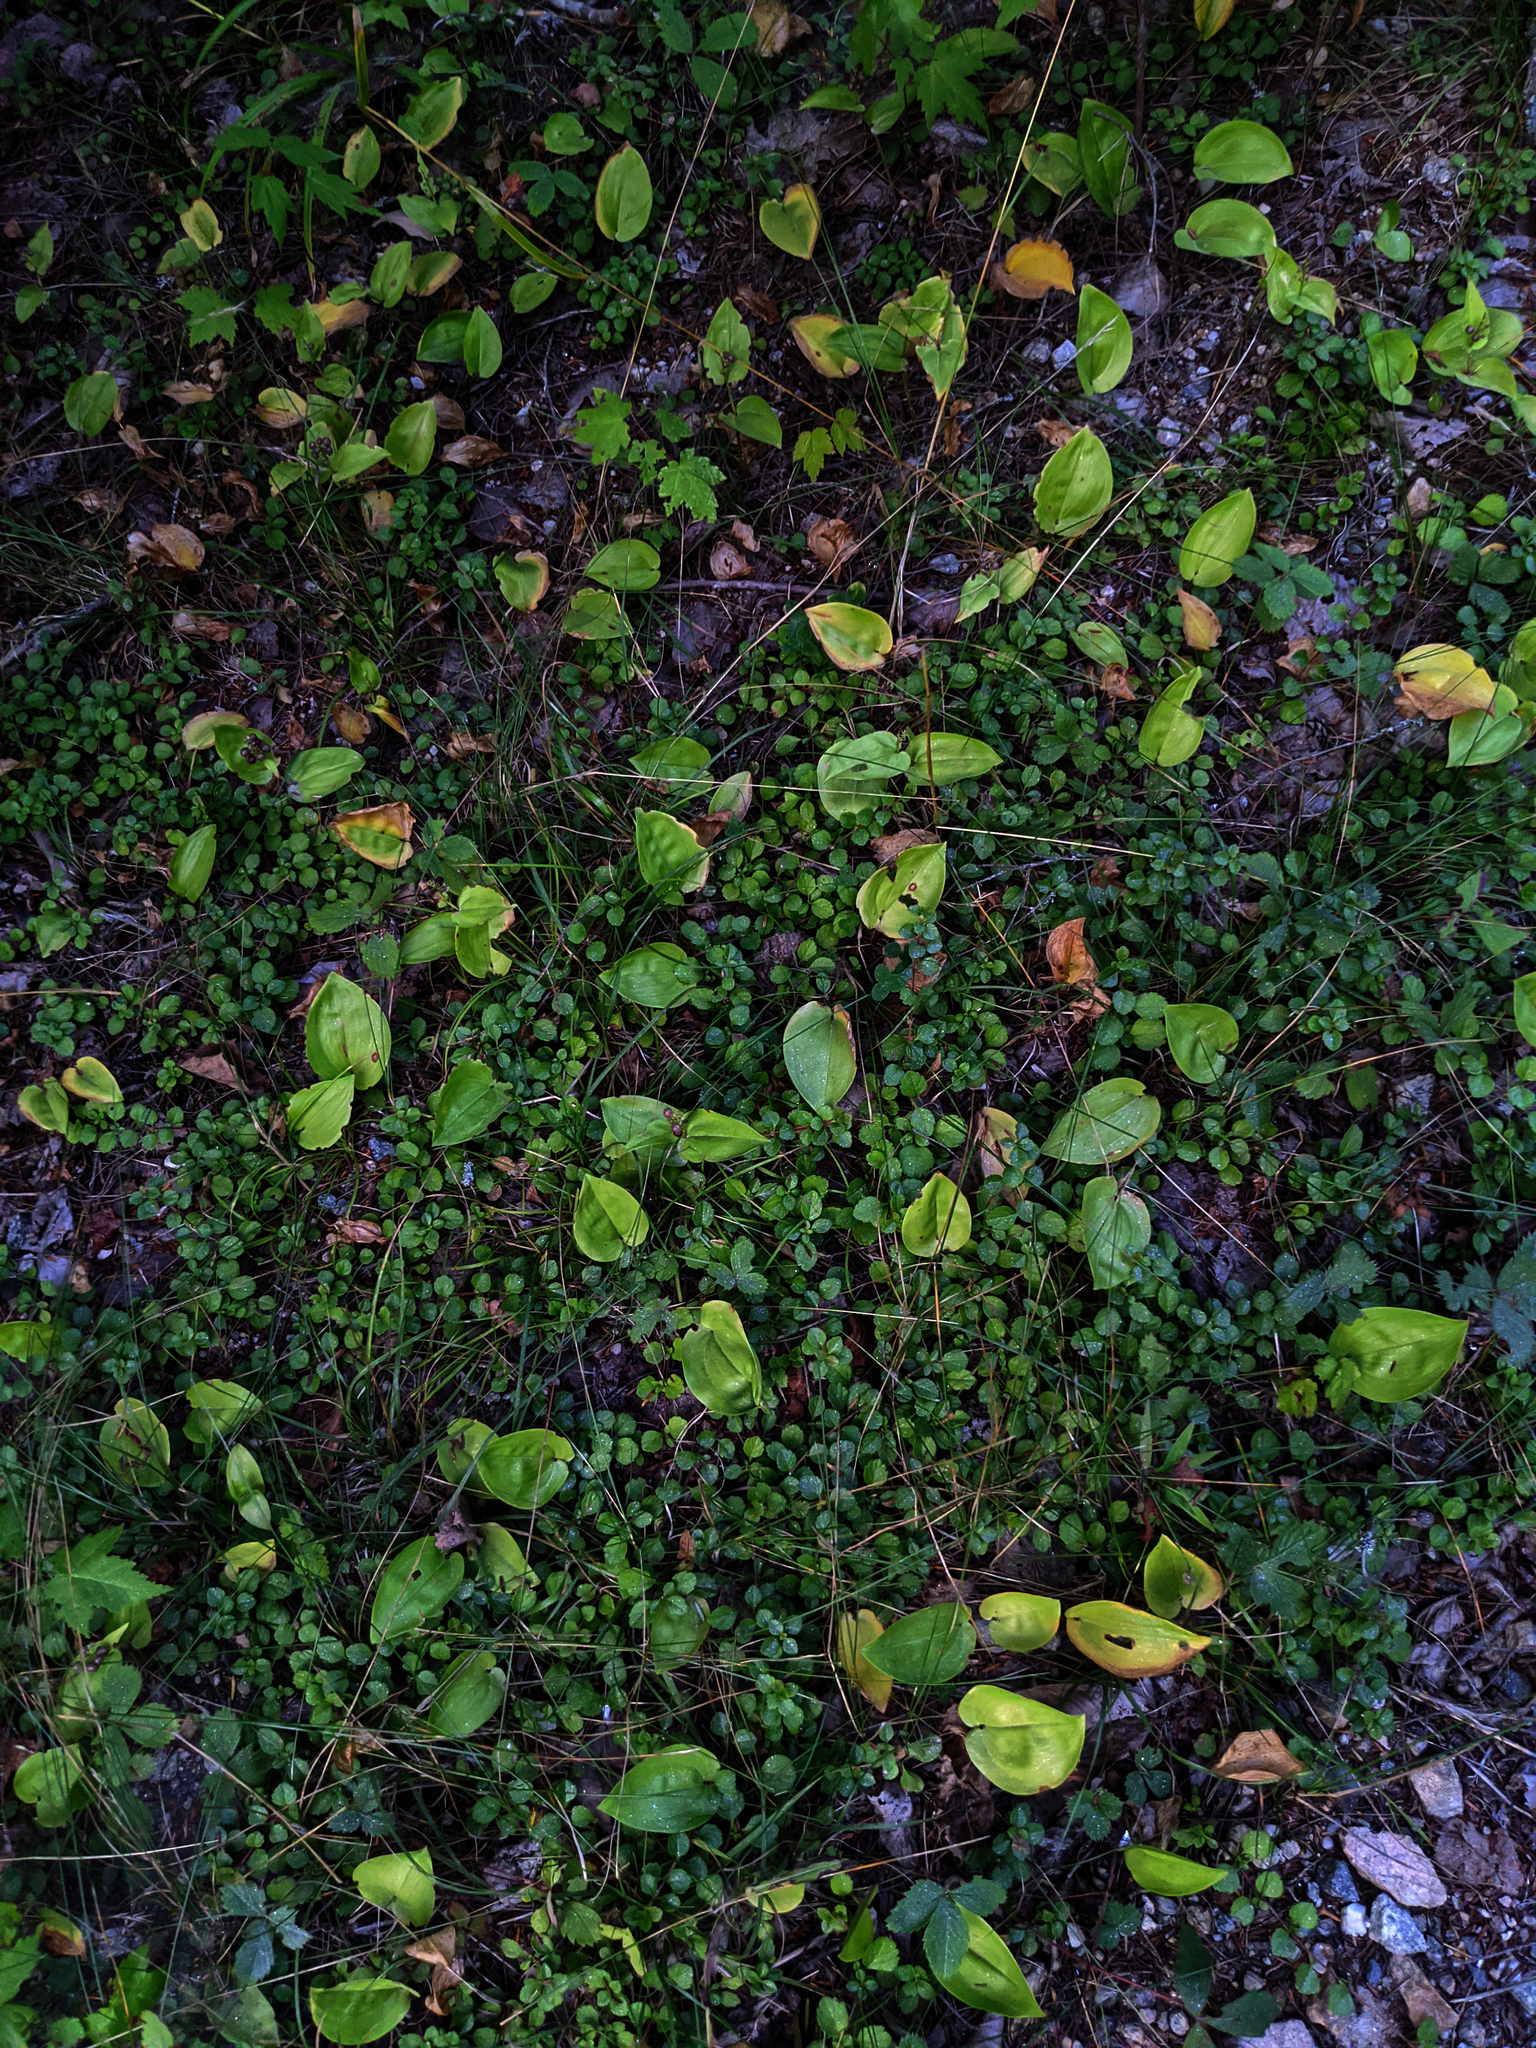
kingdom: Plantae
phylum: Tracheophyta
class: Liliopsida
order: Asparagales
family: Asparagaceae
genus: Maianthemum
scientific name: Maianthemum canadense
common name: False lily-of-the-valley
